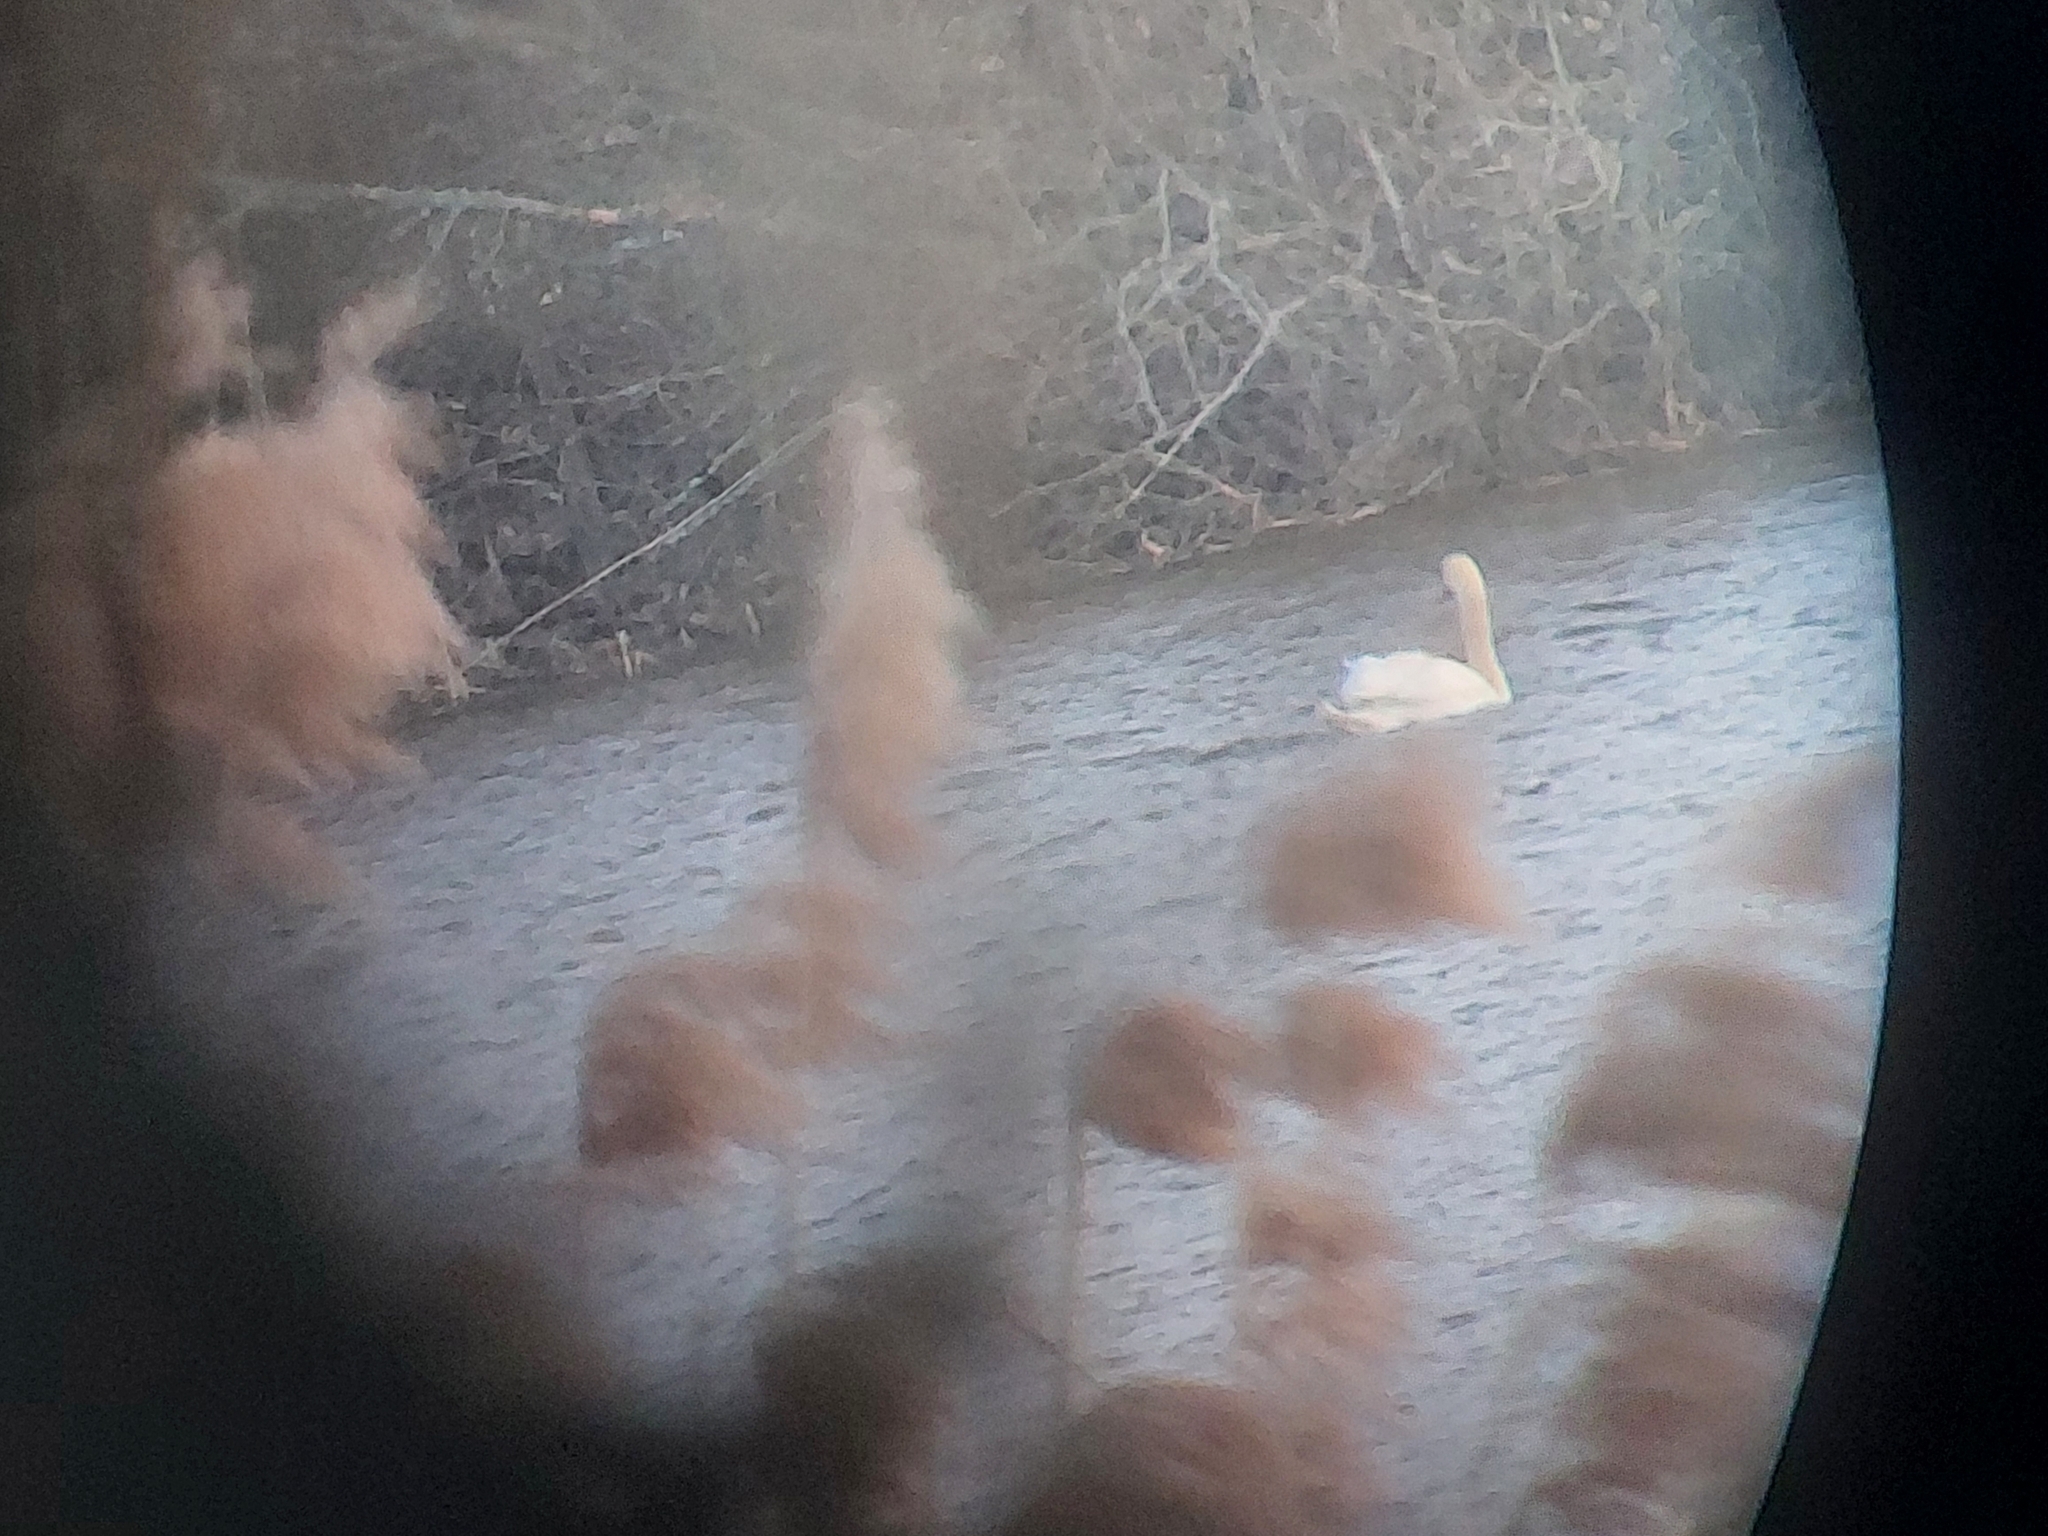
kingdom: Animalia
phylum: Chordata
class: Aves
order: Anseriformes
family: Anatidae
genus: Cygnus
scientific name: Cygnus olor
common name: Mute swan
